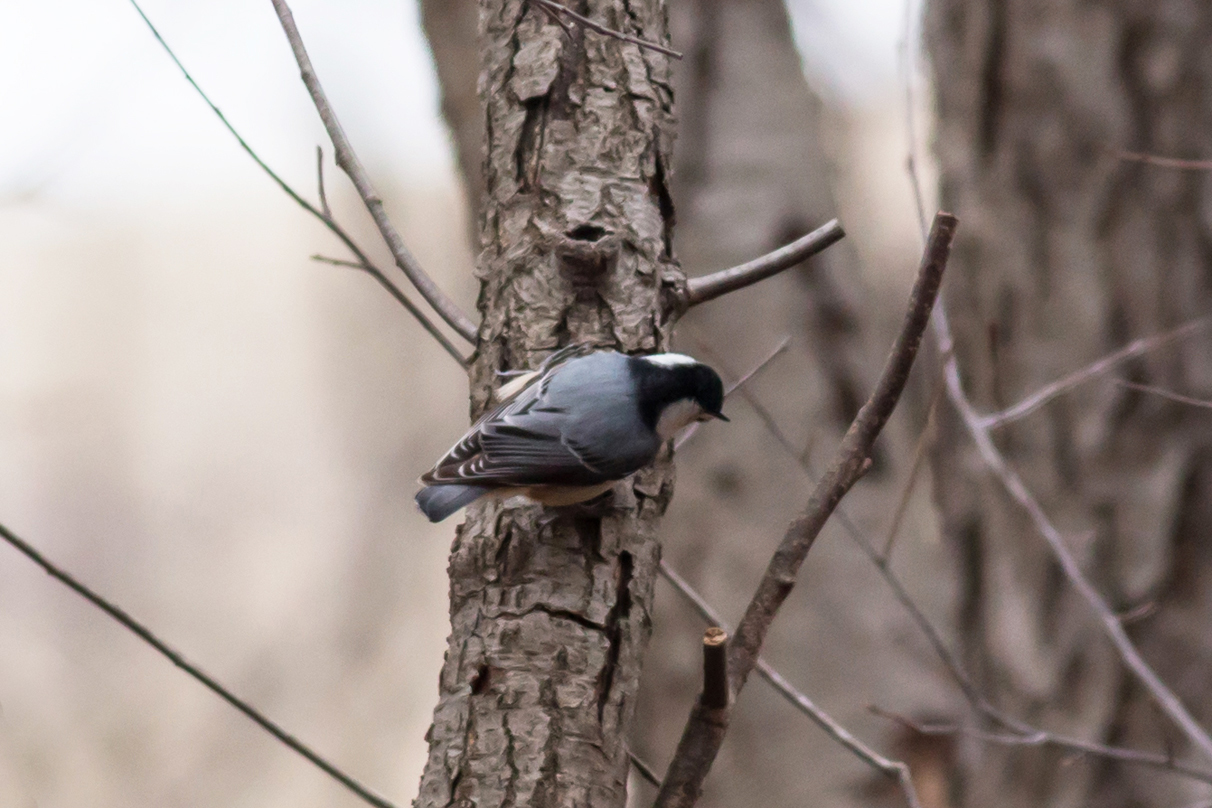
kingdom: Animalia
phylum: Chordata
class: Aves
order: Passeriformes
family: Sittidae
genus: Sitta
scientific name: Sitta carolinensis
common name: White-breasted nuthatch
